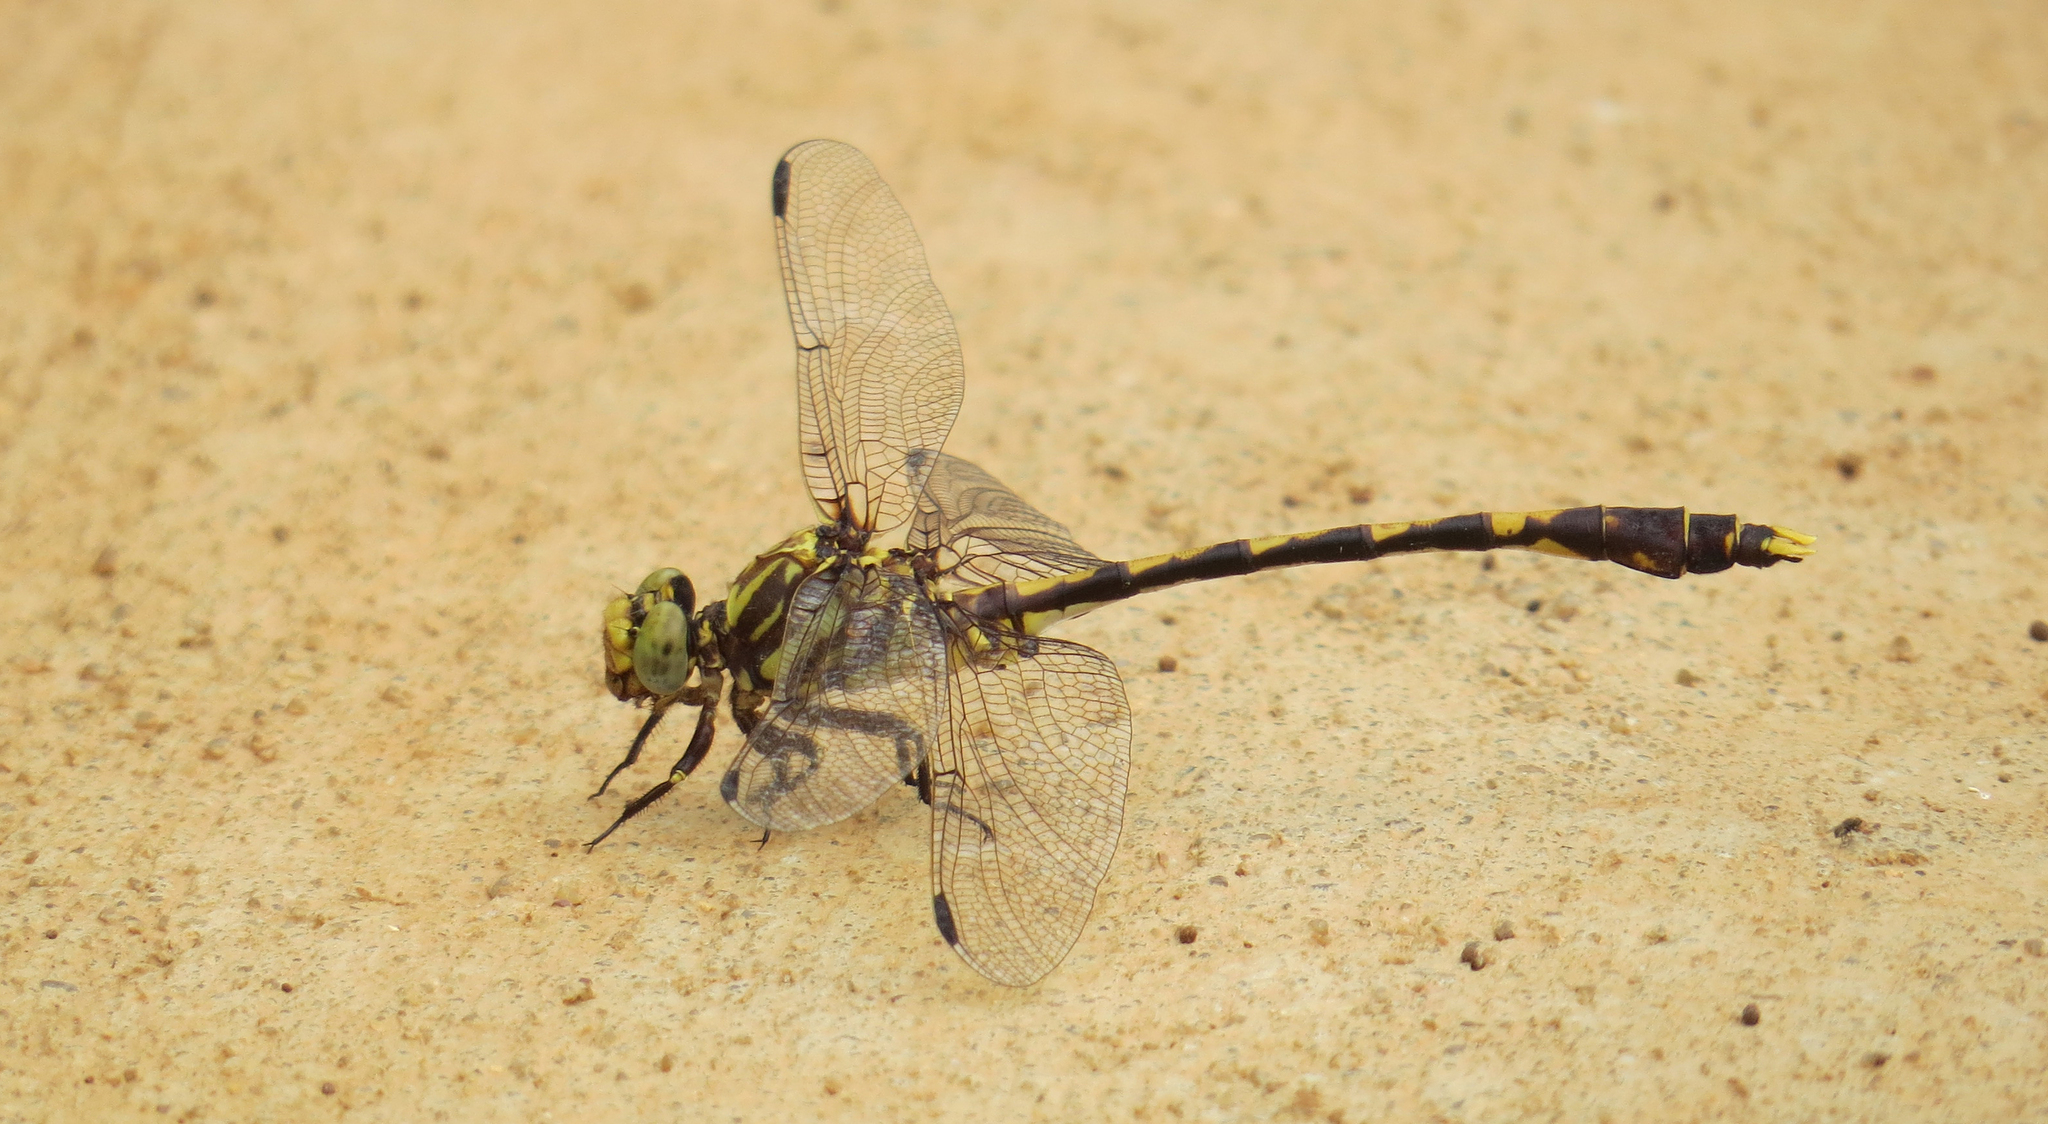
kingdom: Animalia
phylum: Arthropoda
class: Insecta
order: Odonata
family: Gomphidae
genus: Progomphus
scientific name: Progomphus obscurus
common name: Common sanddragon
